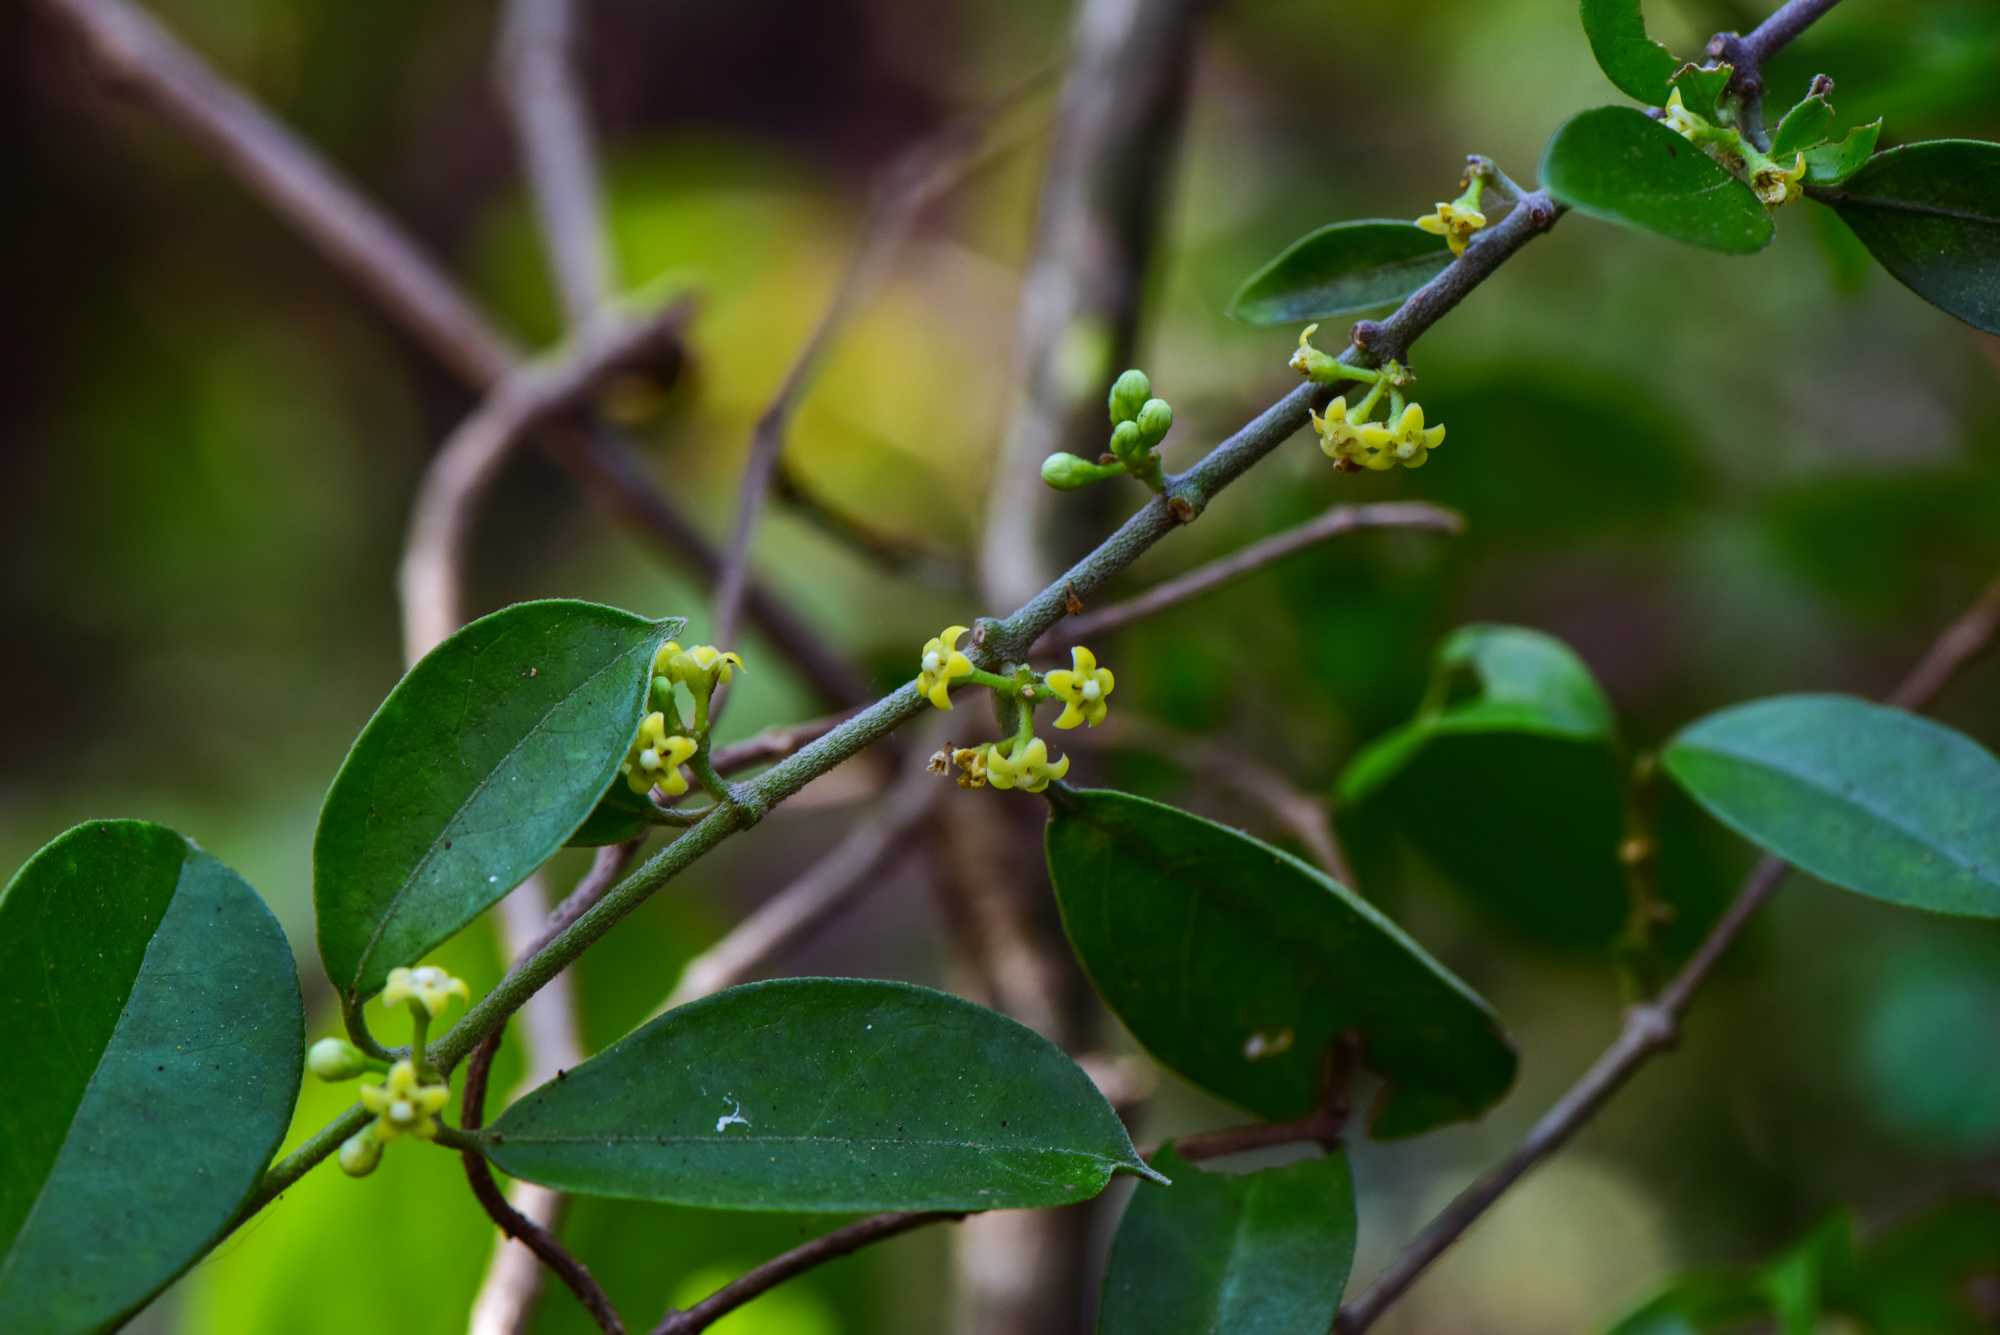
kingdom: Plantae
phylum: Tracheophyta
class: Magnoliopsida
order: Gentianales
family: Apocynaceae
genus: Gymnema
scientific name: Gymnema sylvestre
